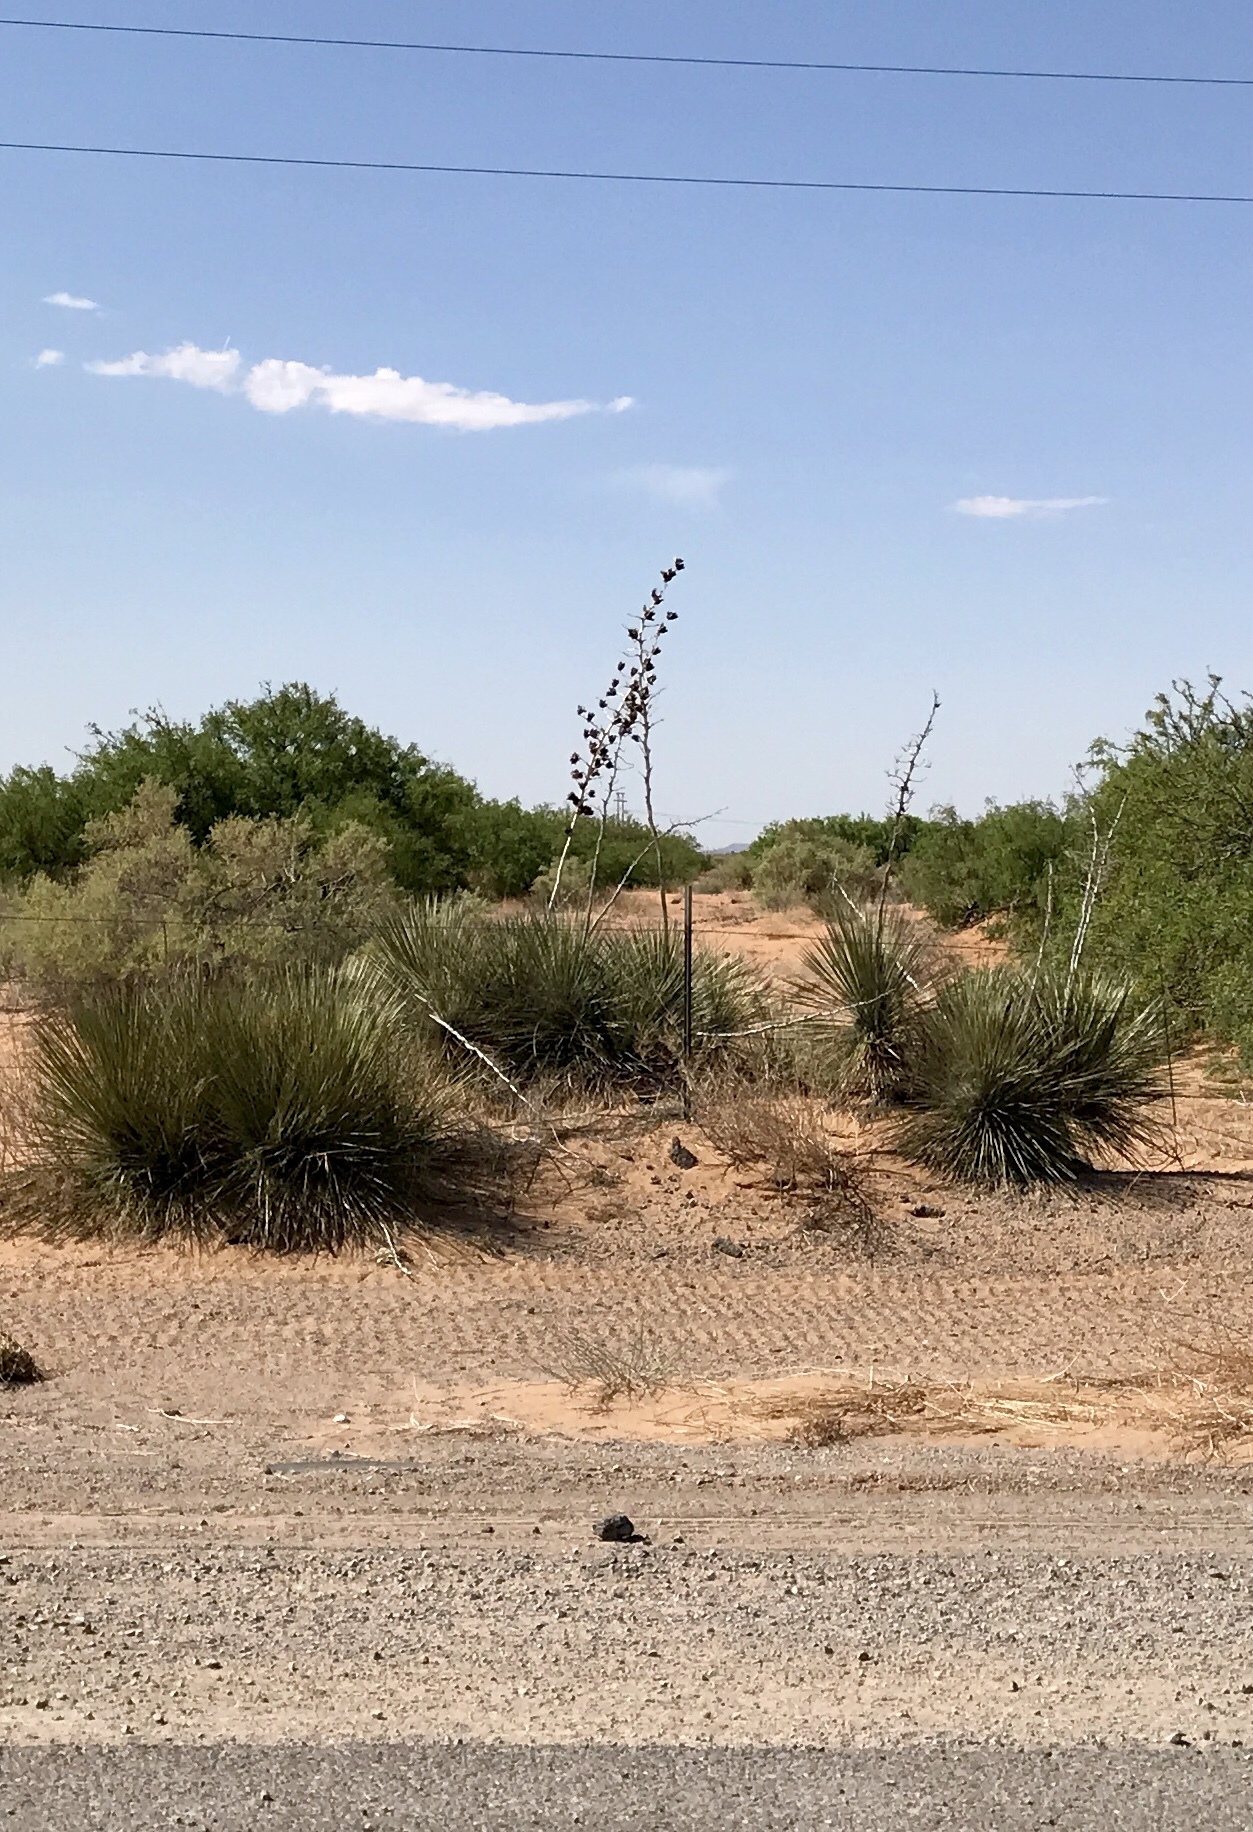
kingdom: Plantae
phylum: Tracheophyta
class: Liliopsida
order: Asparagales
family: Asparagaceae
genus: Yucca
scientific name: Yucca elata
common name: Palmella
